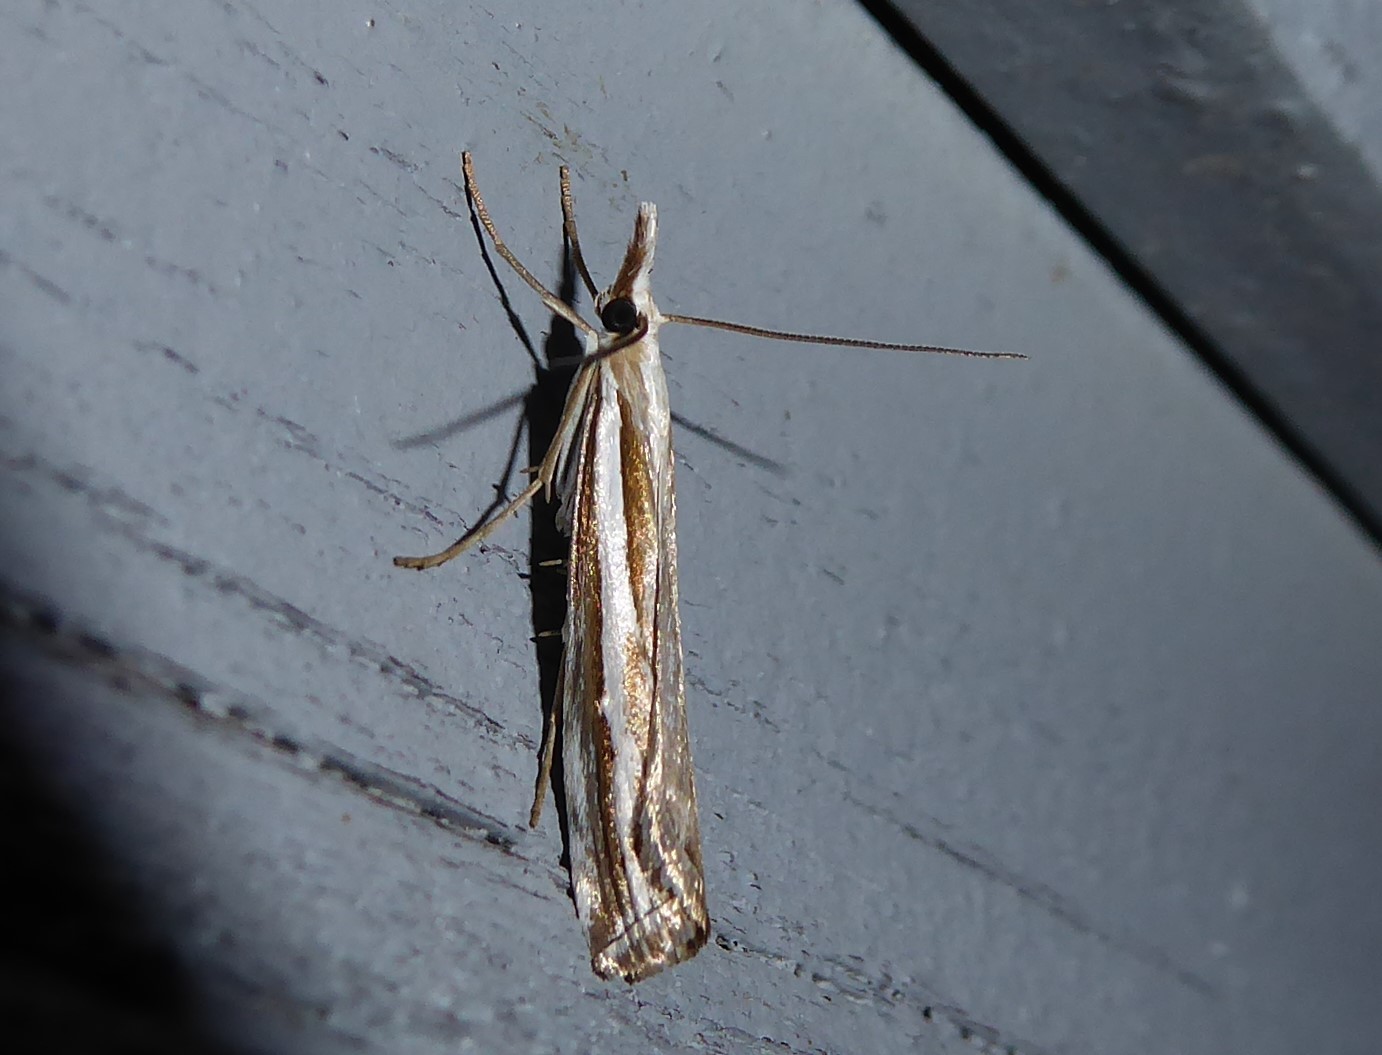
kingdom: Animalia
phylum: Arthropoda
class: Insecta
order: Lepidoptera
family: Crambidae
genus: Orocrambus
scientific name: Orocrambus vittellus
